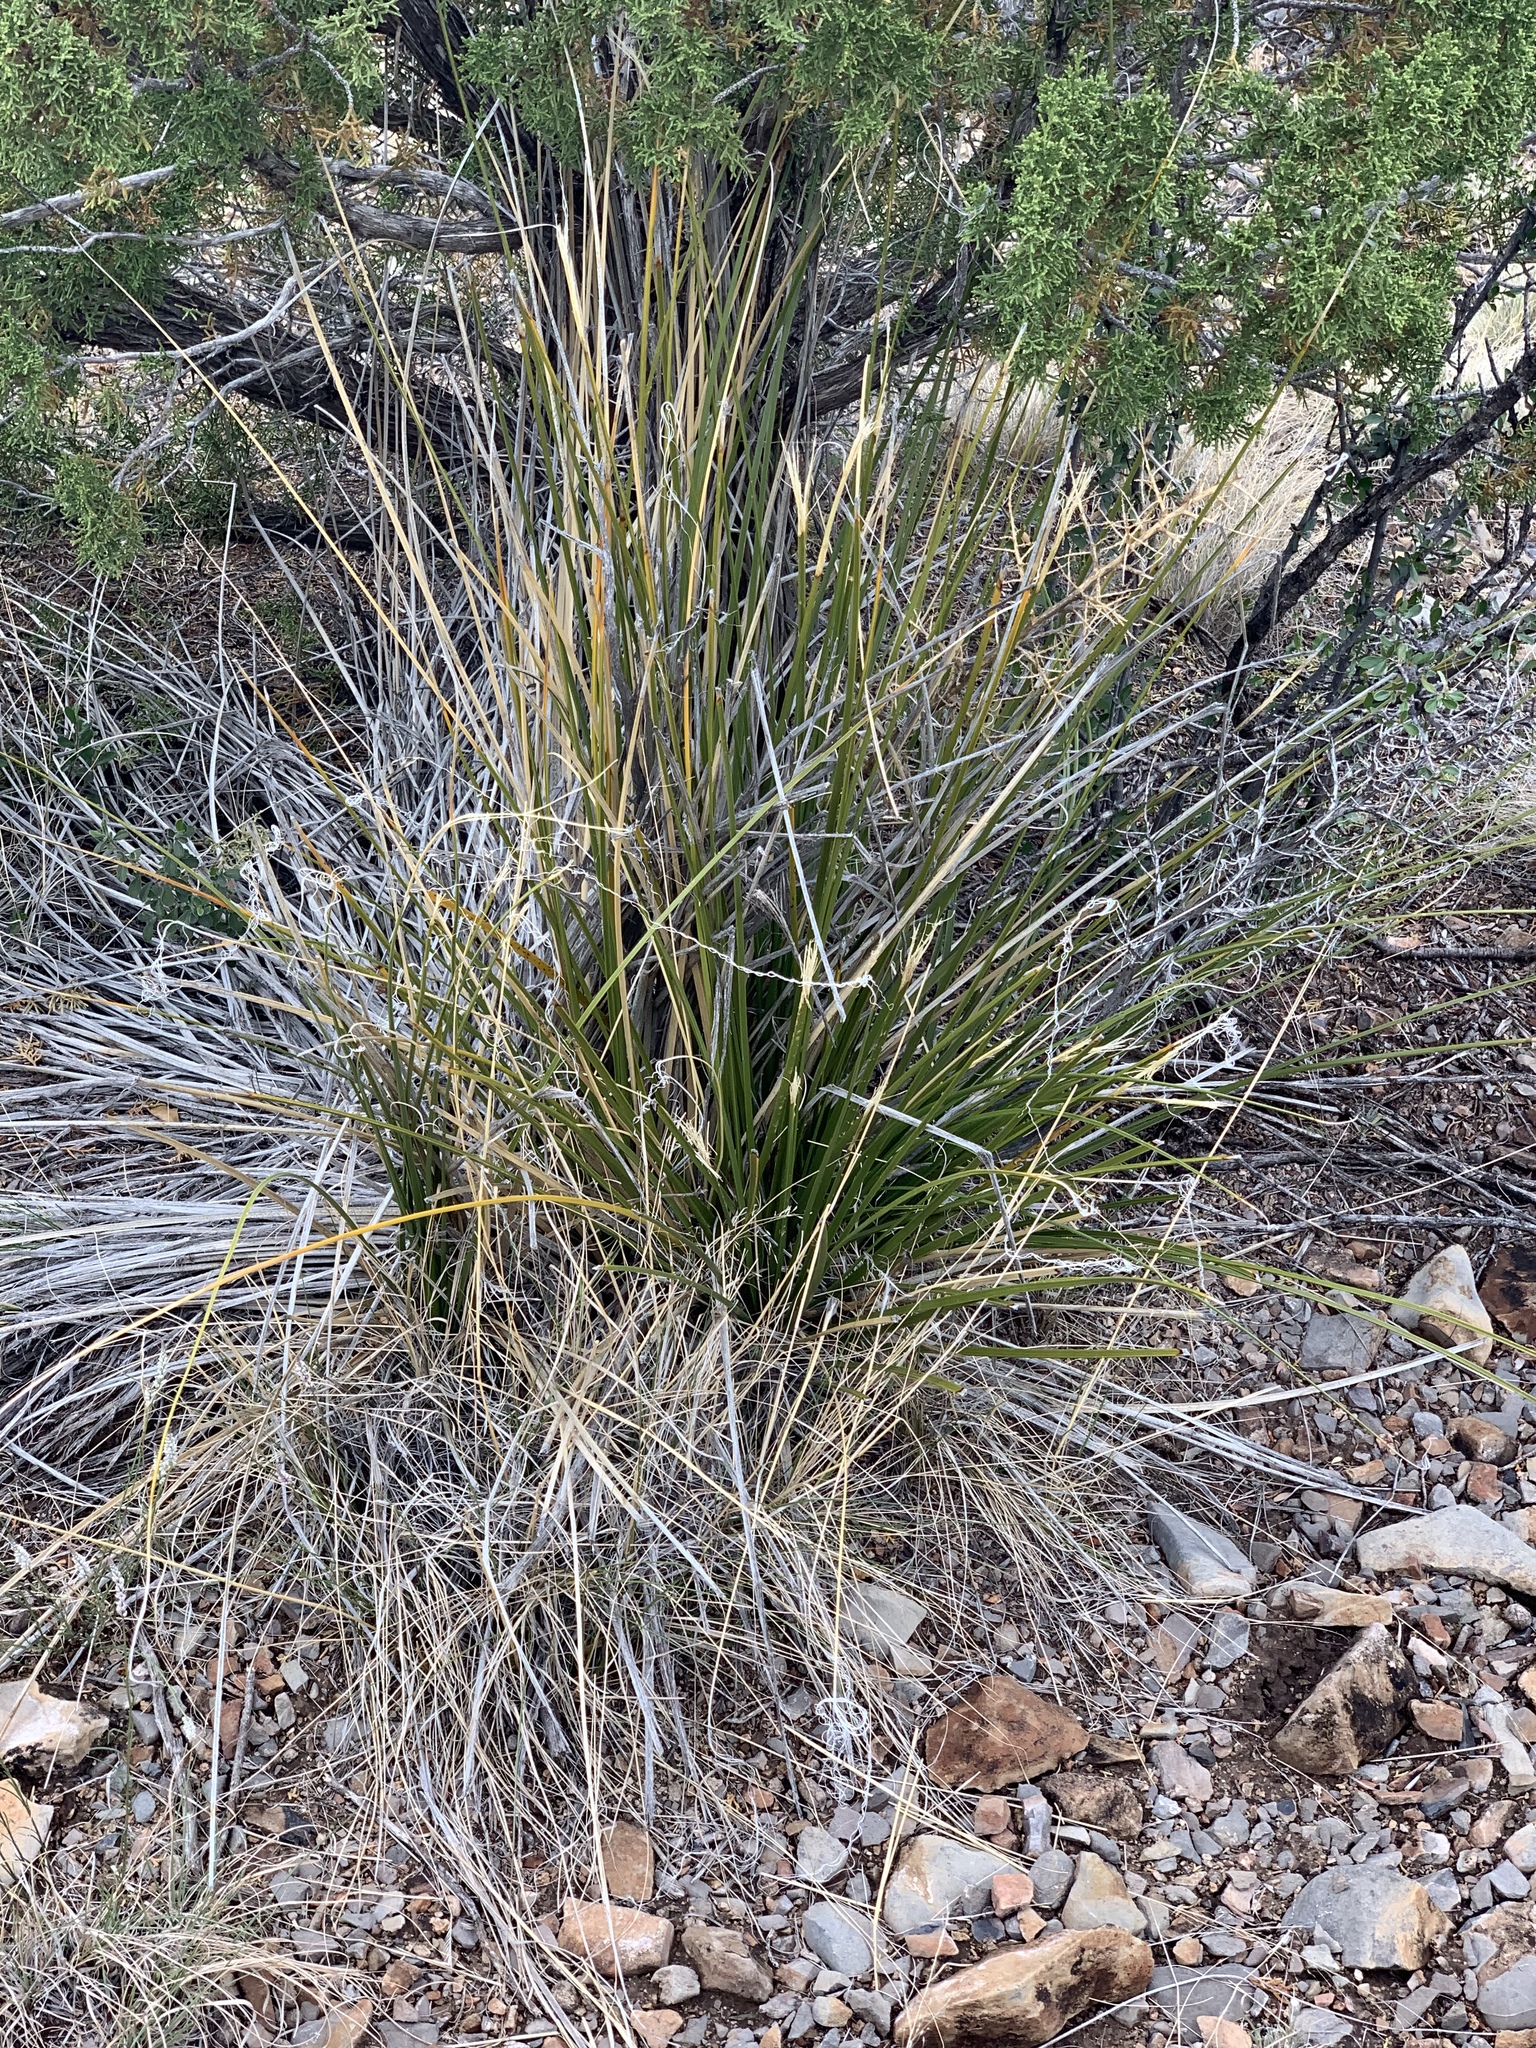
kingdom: Plantae
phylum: Tracheophyta
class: Liliopsida
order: Asparagales
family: Asparagaceae
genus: Nolina
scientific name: Nolina microcarpa
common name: Bear-grass
